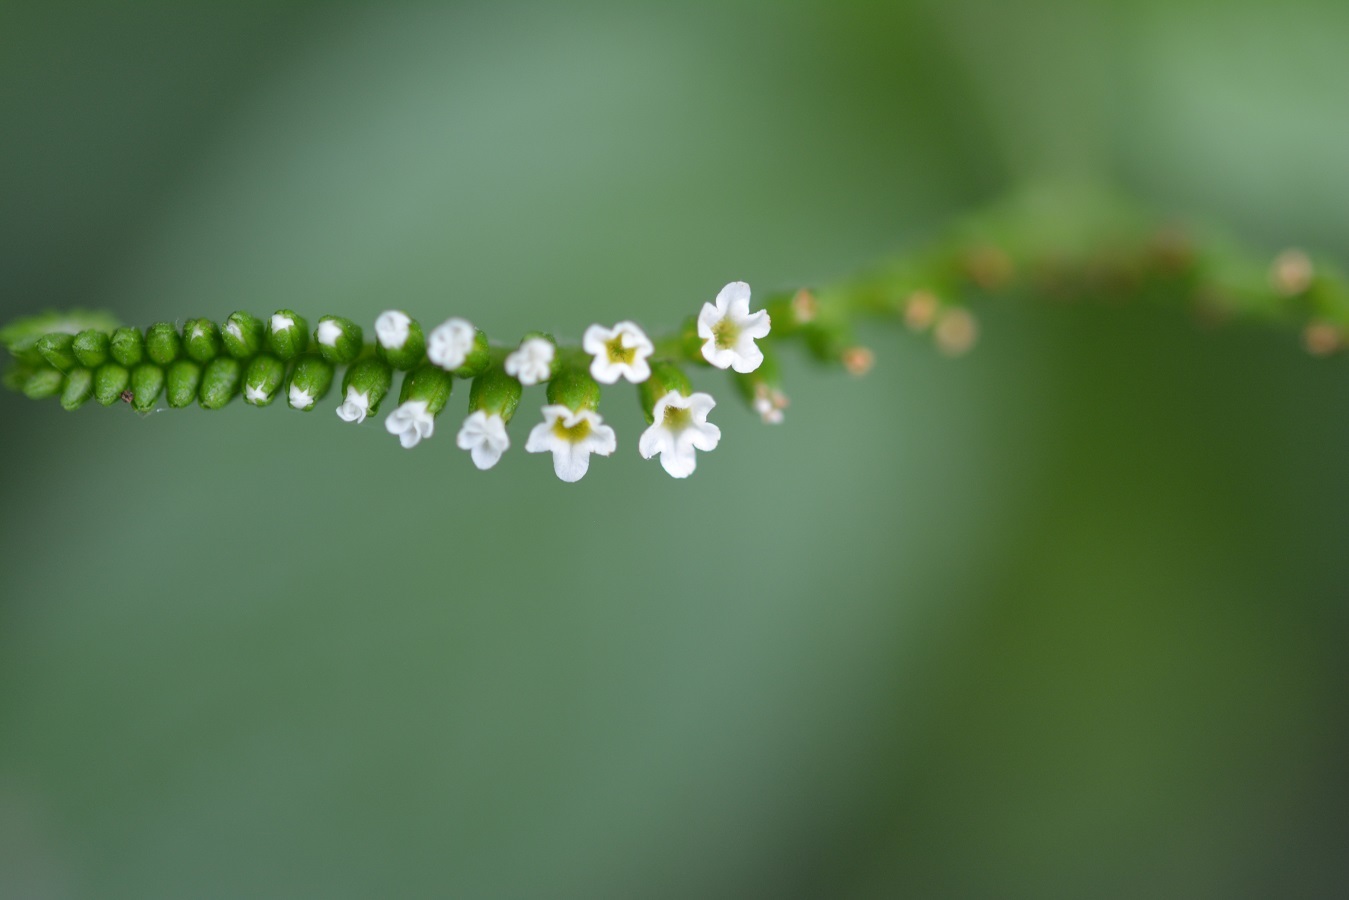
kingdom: Plantae
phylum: Tracheophyta
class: Magnoliopsida
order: Boraginales
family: Heliotropiaceae
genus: Heliotropium
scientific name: Heliotropium angiospermum
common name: Eye bright
